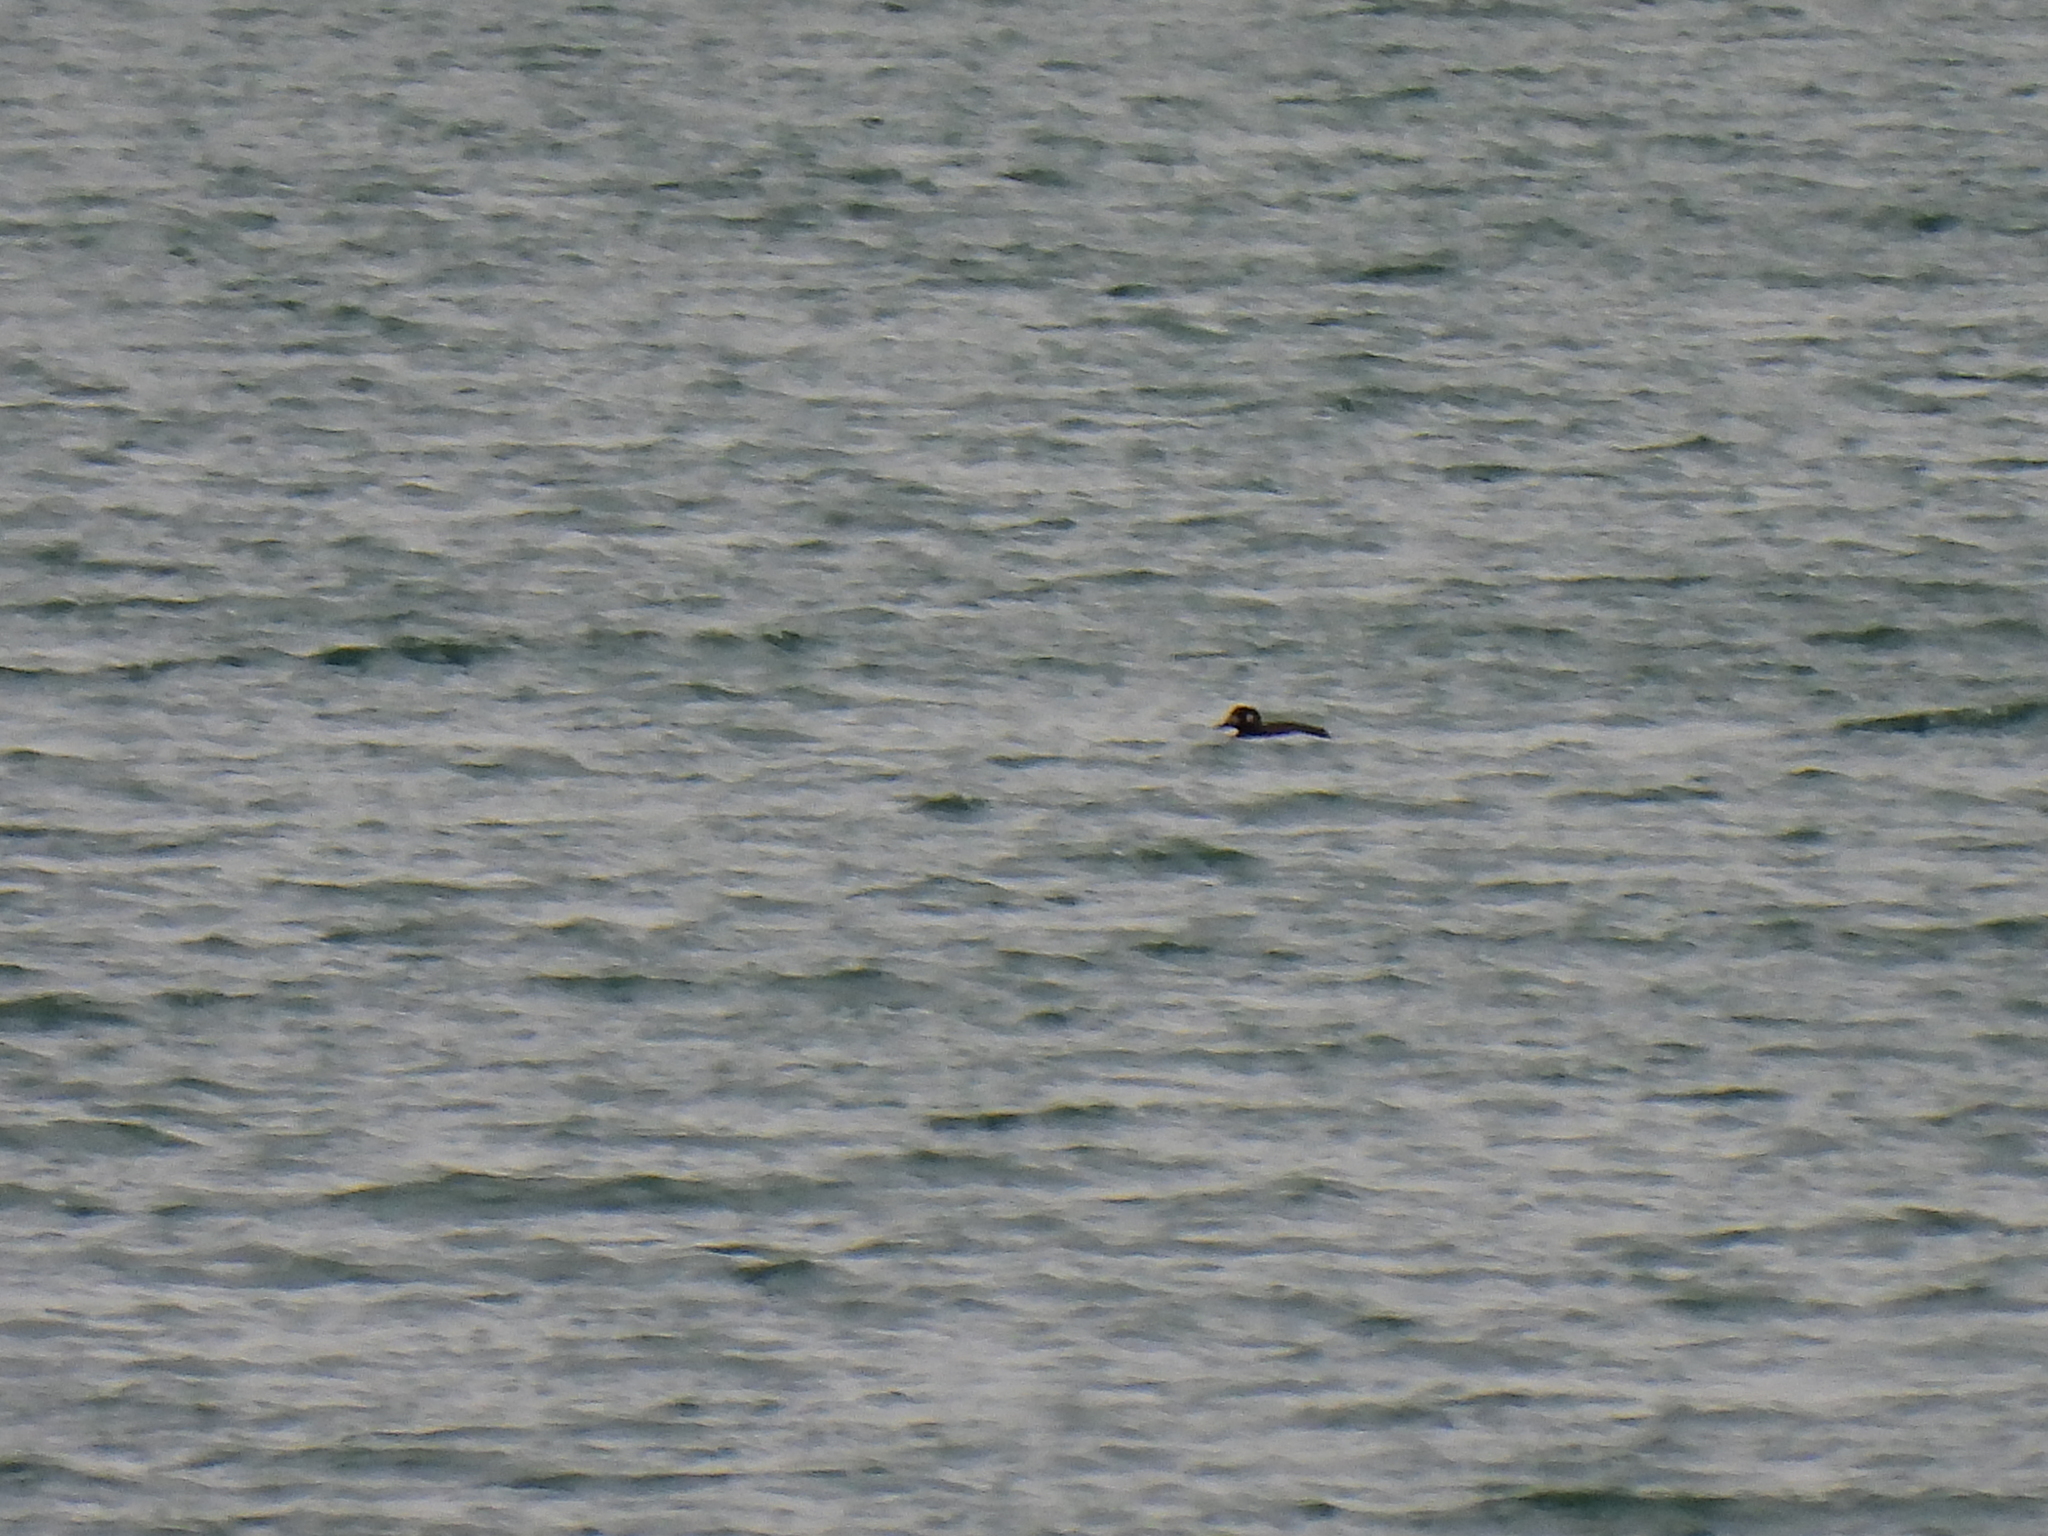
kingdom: Animalia
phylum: Chordata
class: Aves
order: Anseriformes
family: Anatidae
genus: Melanitta
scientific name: Melanitta fusca
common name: Velvet scoter
